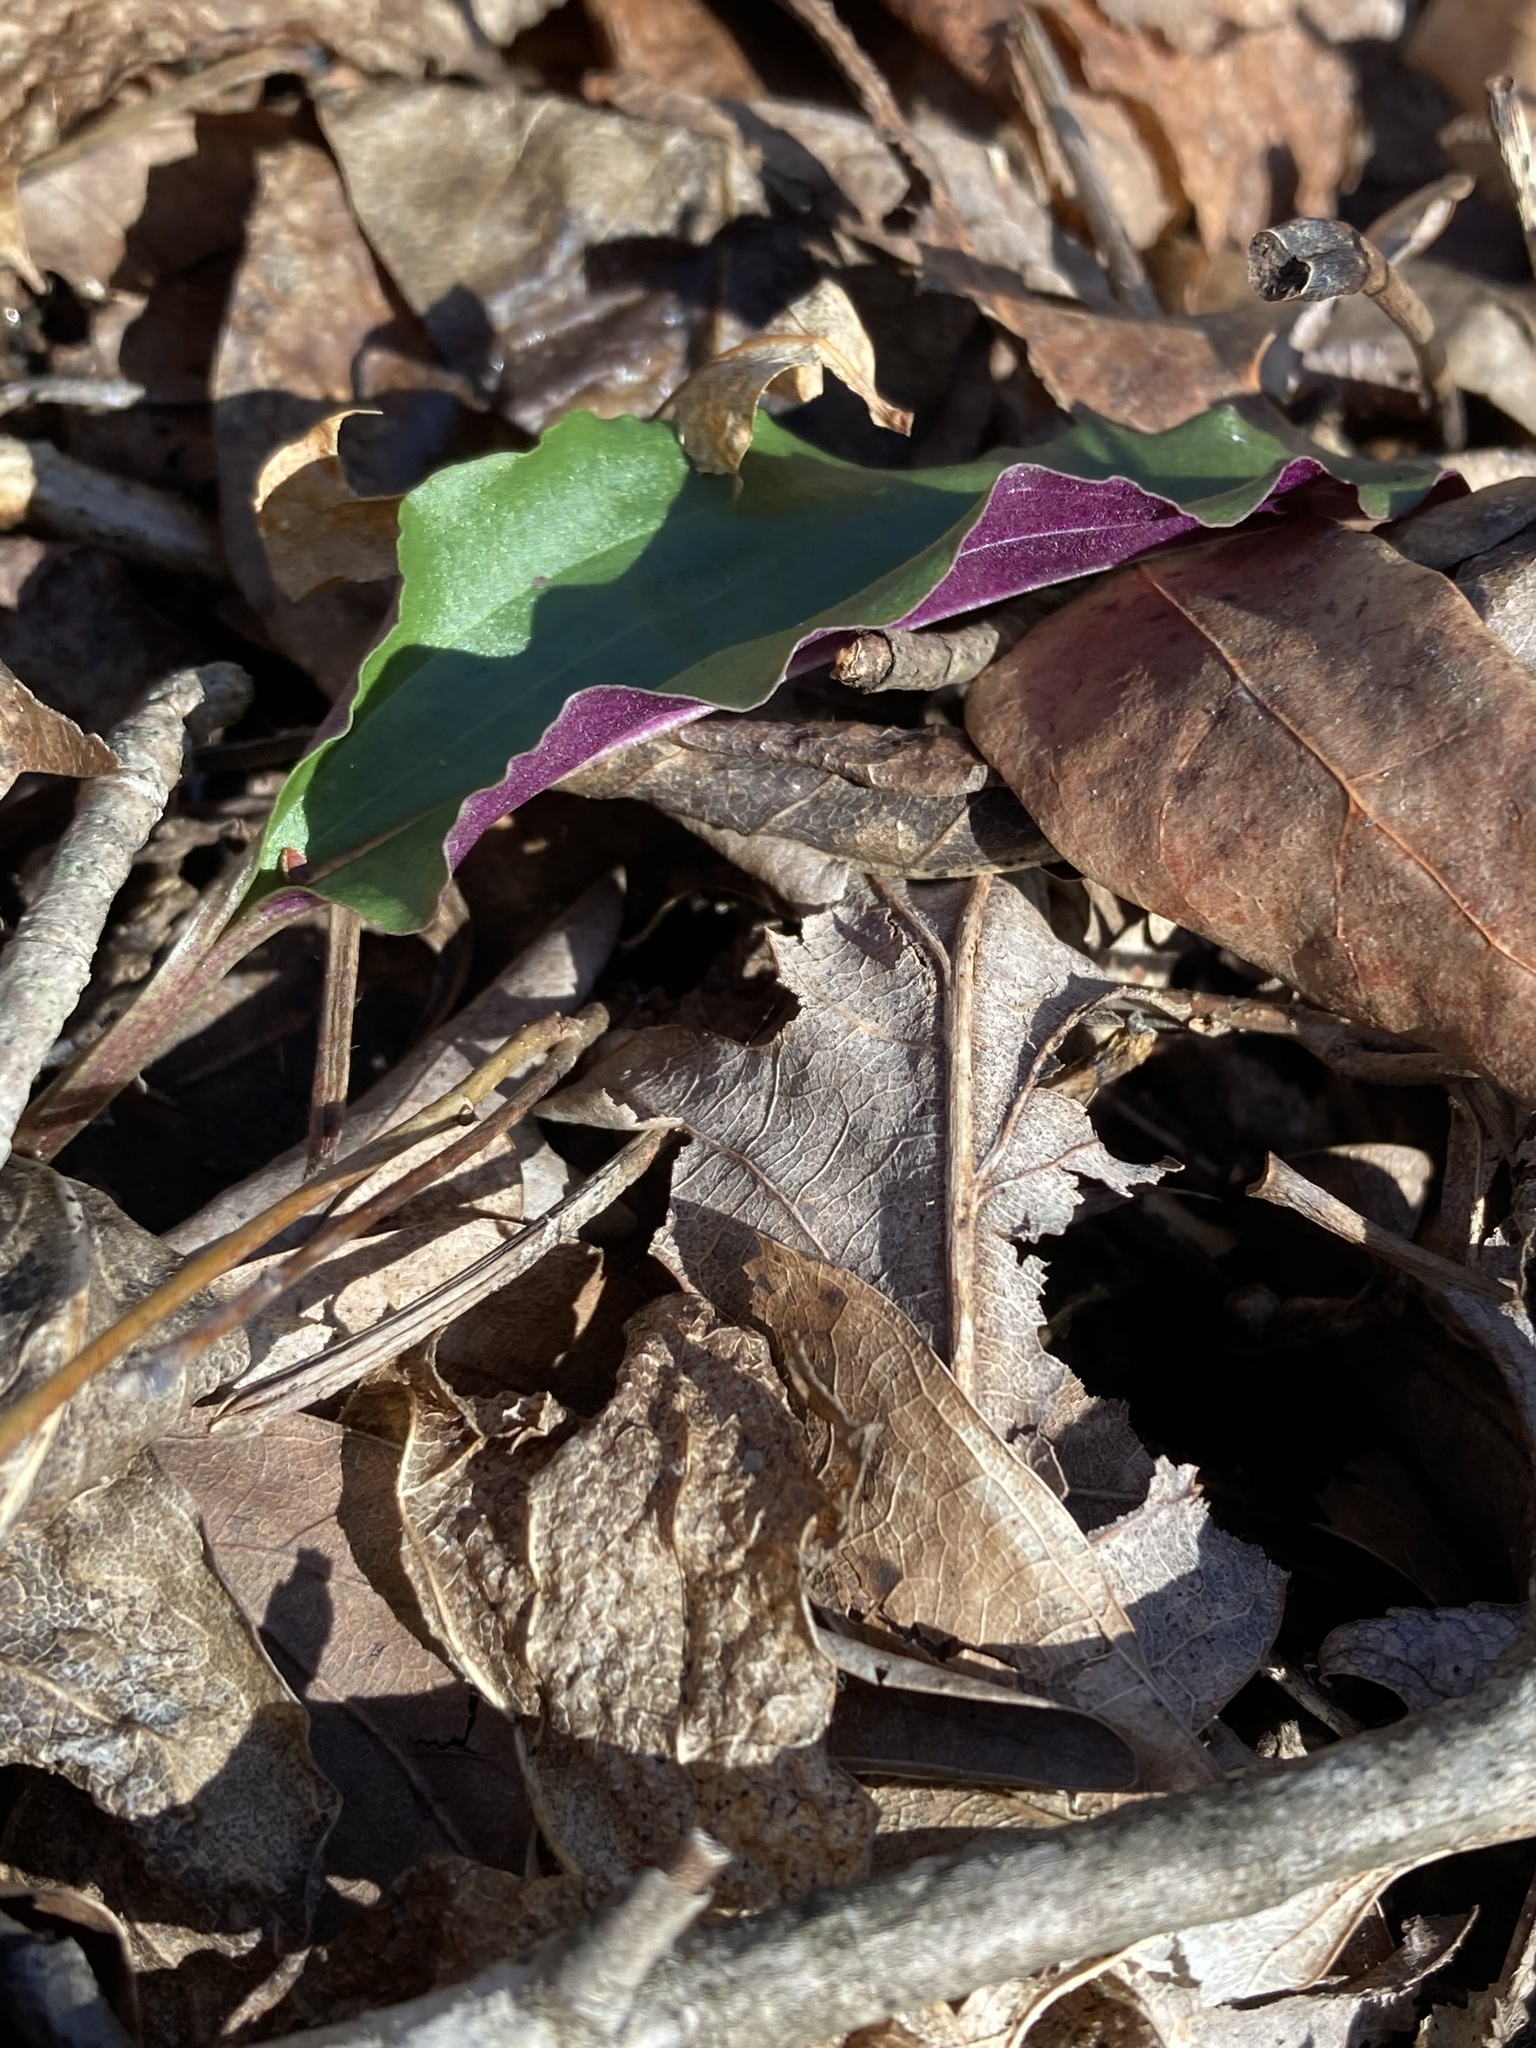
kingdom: Plantae
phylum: Tracheophyta
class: Liliopsida
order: Asparagales
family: Orchidaceae
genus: Tipularia
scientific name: Tipularia discolor
